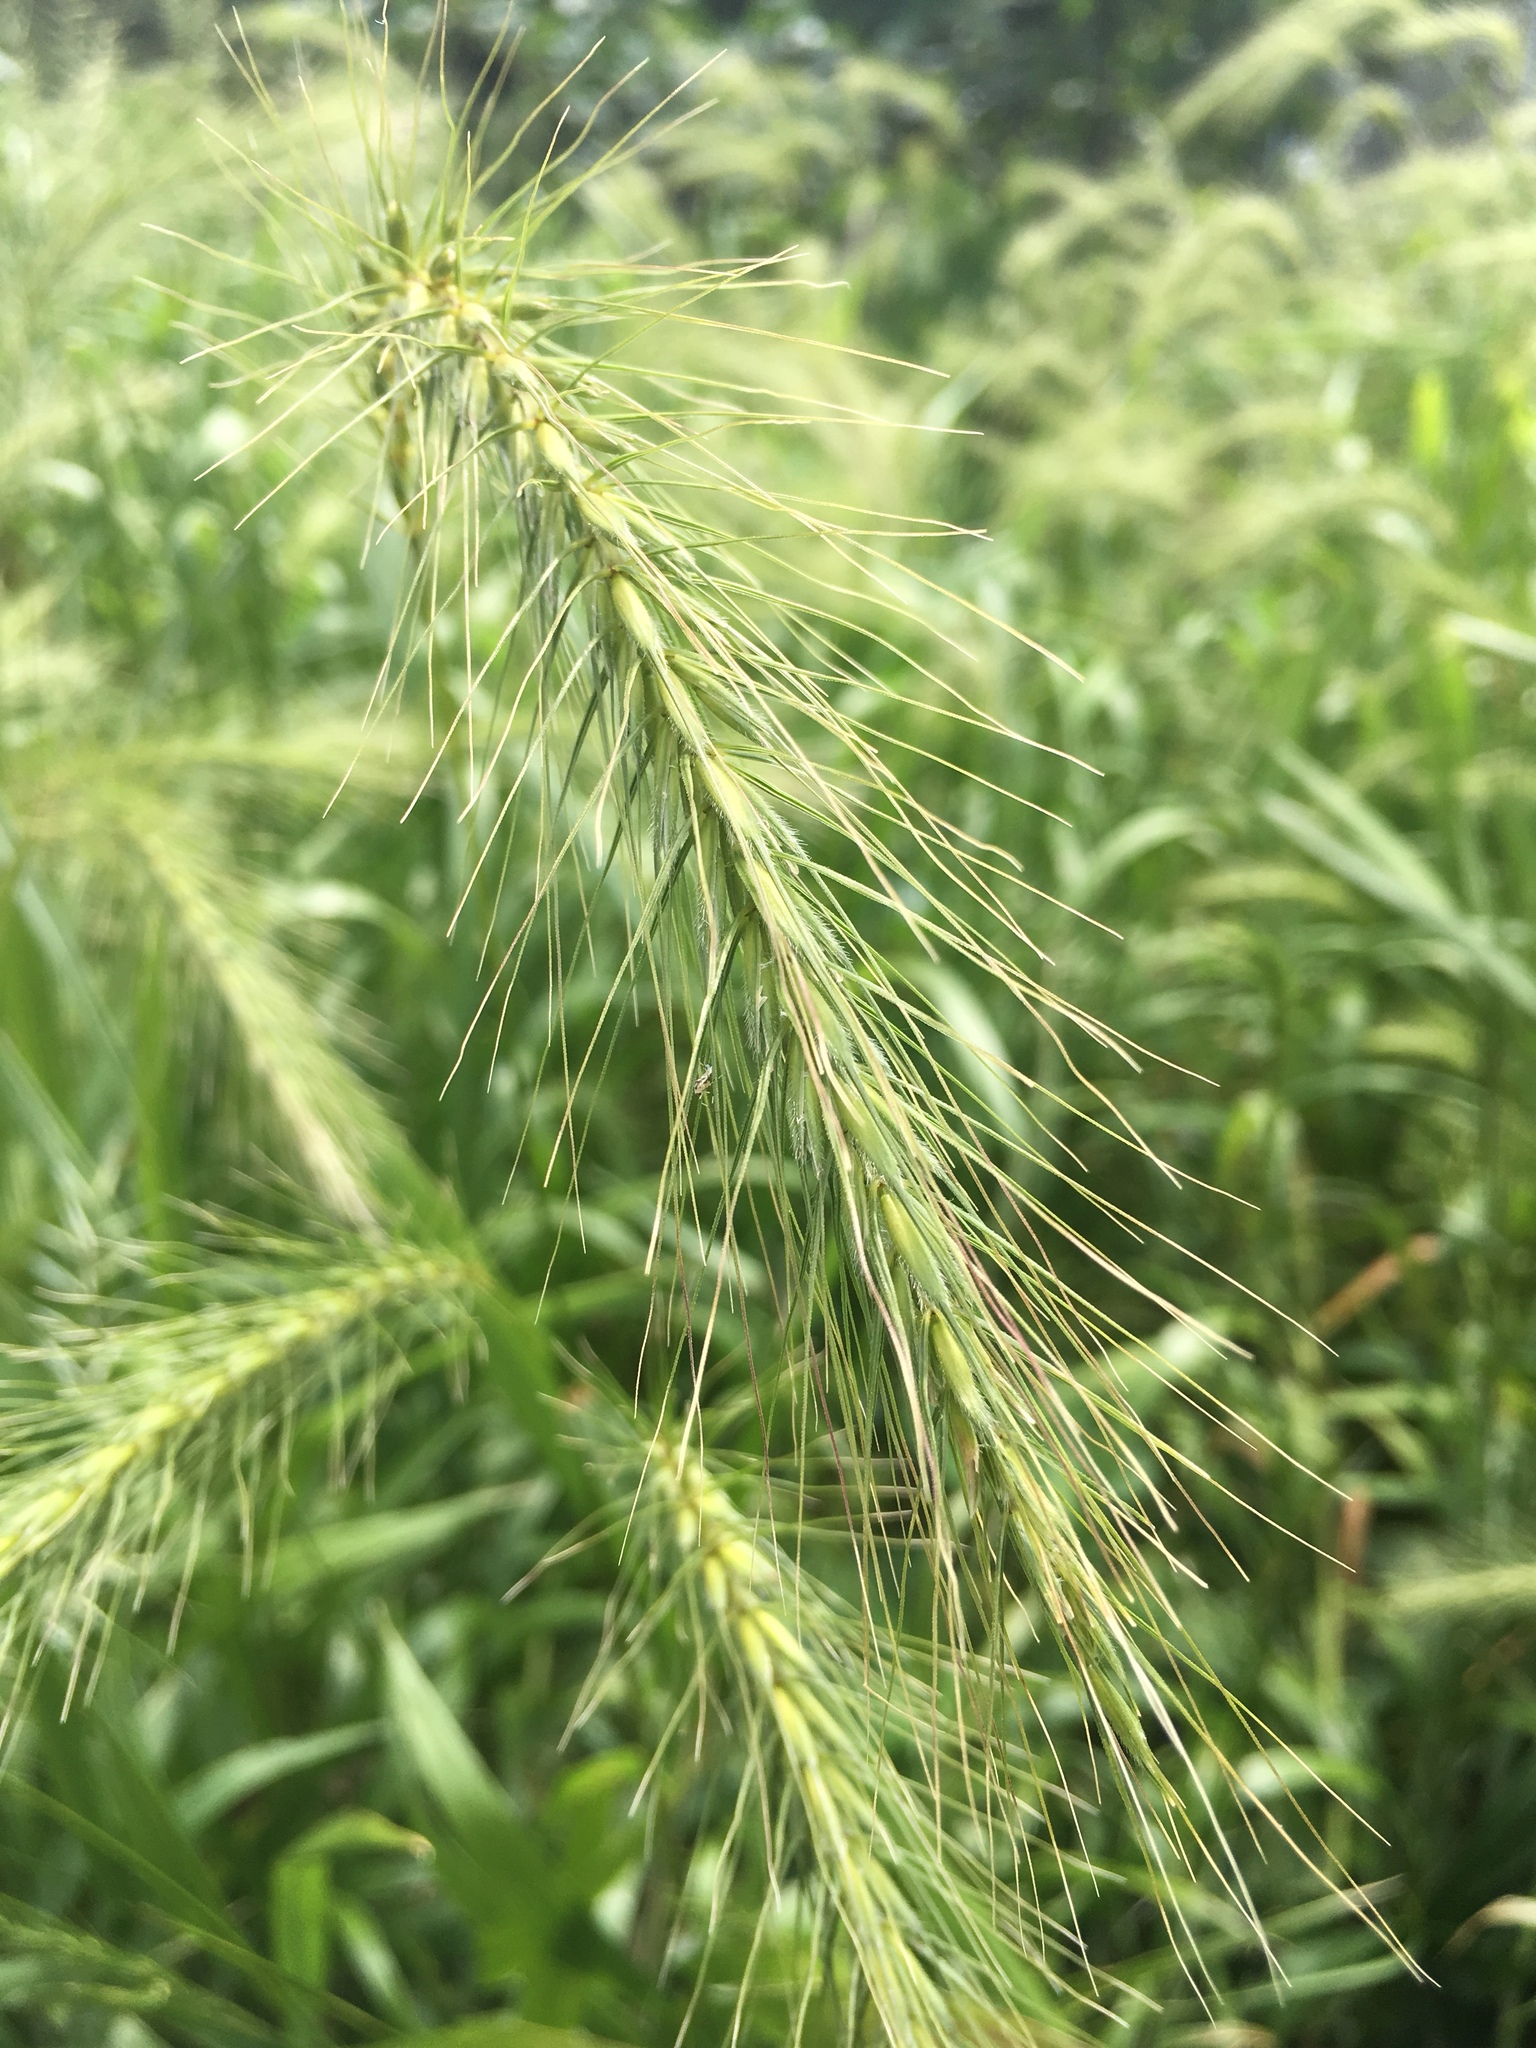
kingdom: Plantae
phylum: Tracheophyta
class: Liliopsida
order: Poales
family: Poaceae
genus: Elymus
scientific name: Elymus canadensis
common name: Canada wild rye
